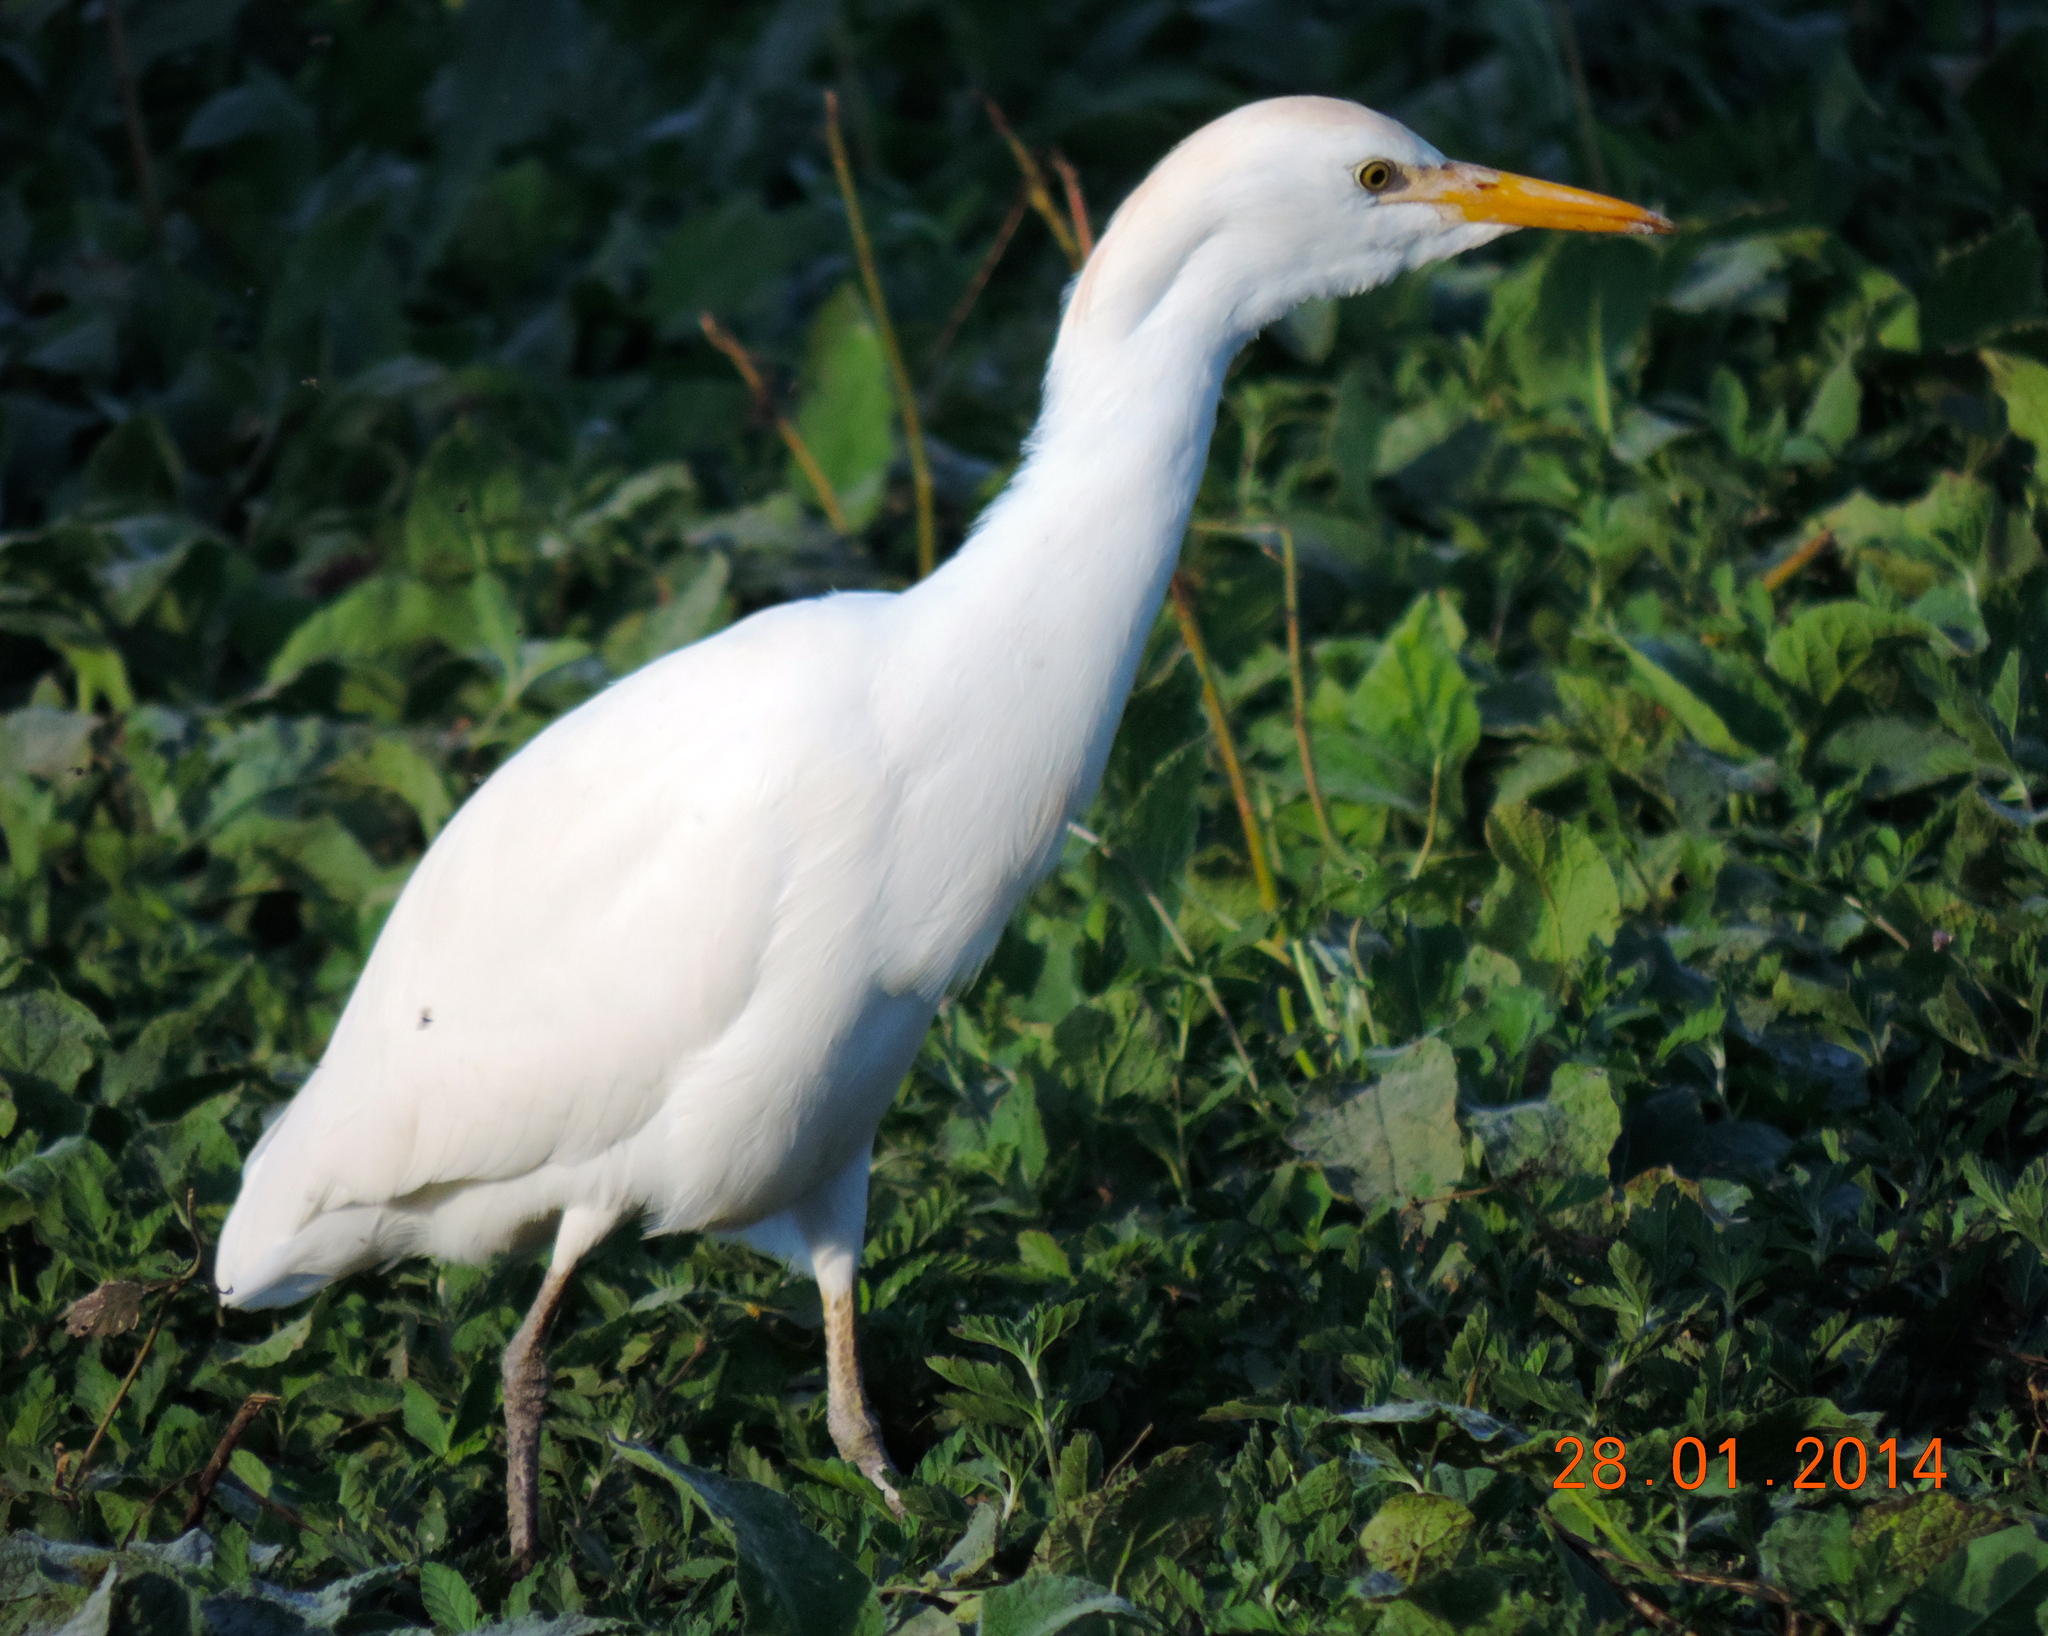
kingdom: Animalia
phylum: Chordata
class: Aves
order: Pelecaniformes
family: Ardeidae
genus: Bubulcus
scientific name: Bubulcus ibis
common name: Cattle egret
